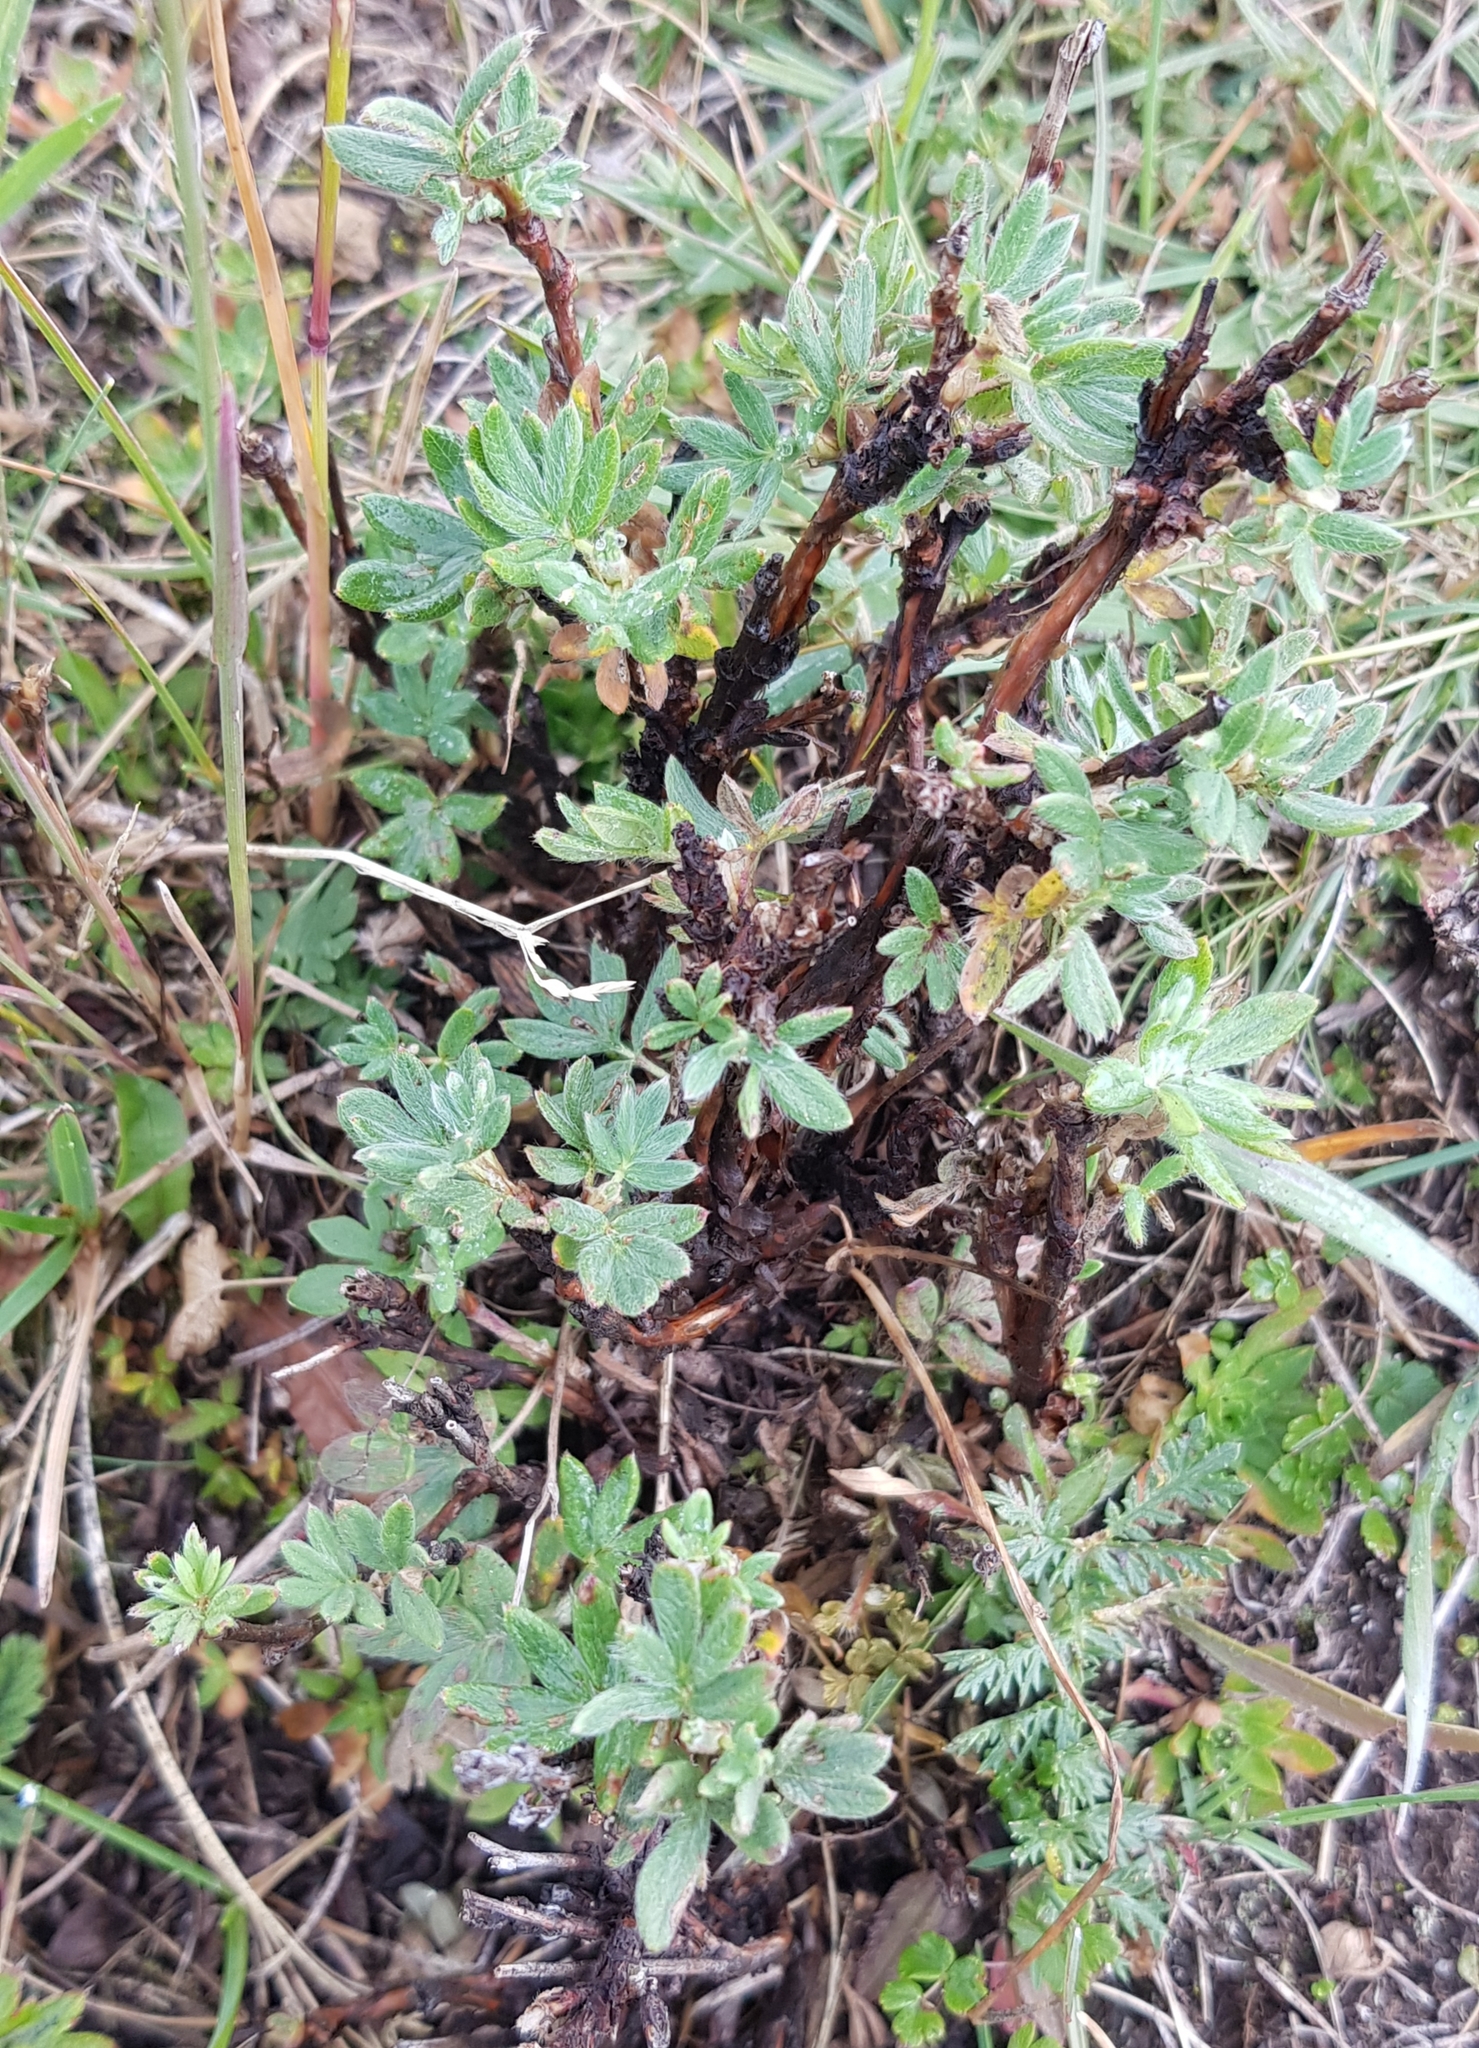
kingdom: Plantae
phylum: Tracheophyta
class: Magnoliopsida
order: Rosales
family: Rosaceae
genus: Dasiphora
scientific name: Dasiphora fruticosa
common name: Shrubby cinquefoil
